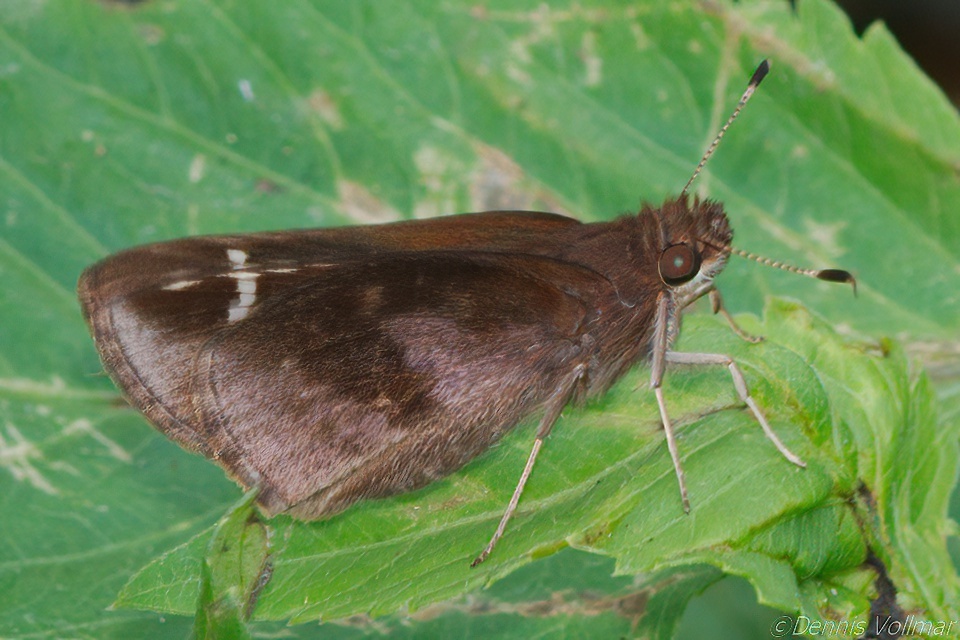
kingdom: Animalia
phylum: Arthropoda
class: Insecta
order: Lepidoptera
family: Hesperiidae
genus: Lerema
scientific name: Lerema accius
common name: Clouded skipper
